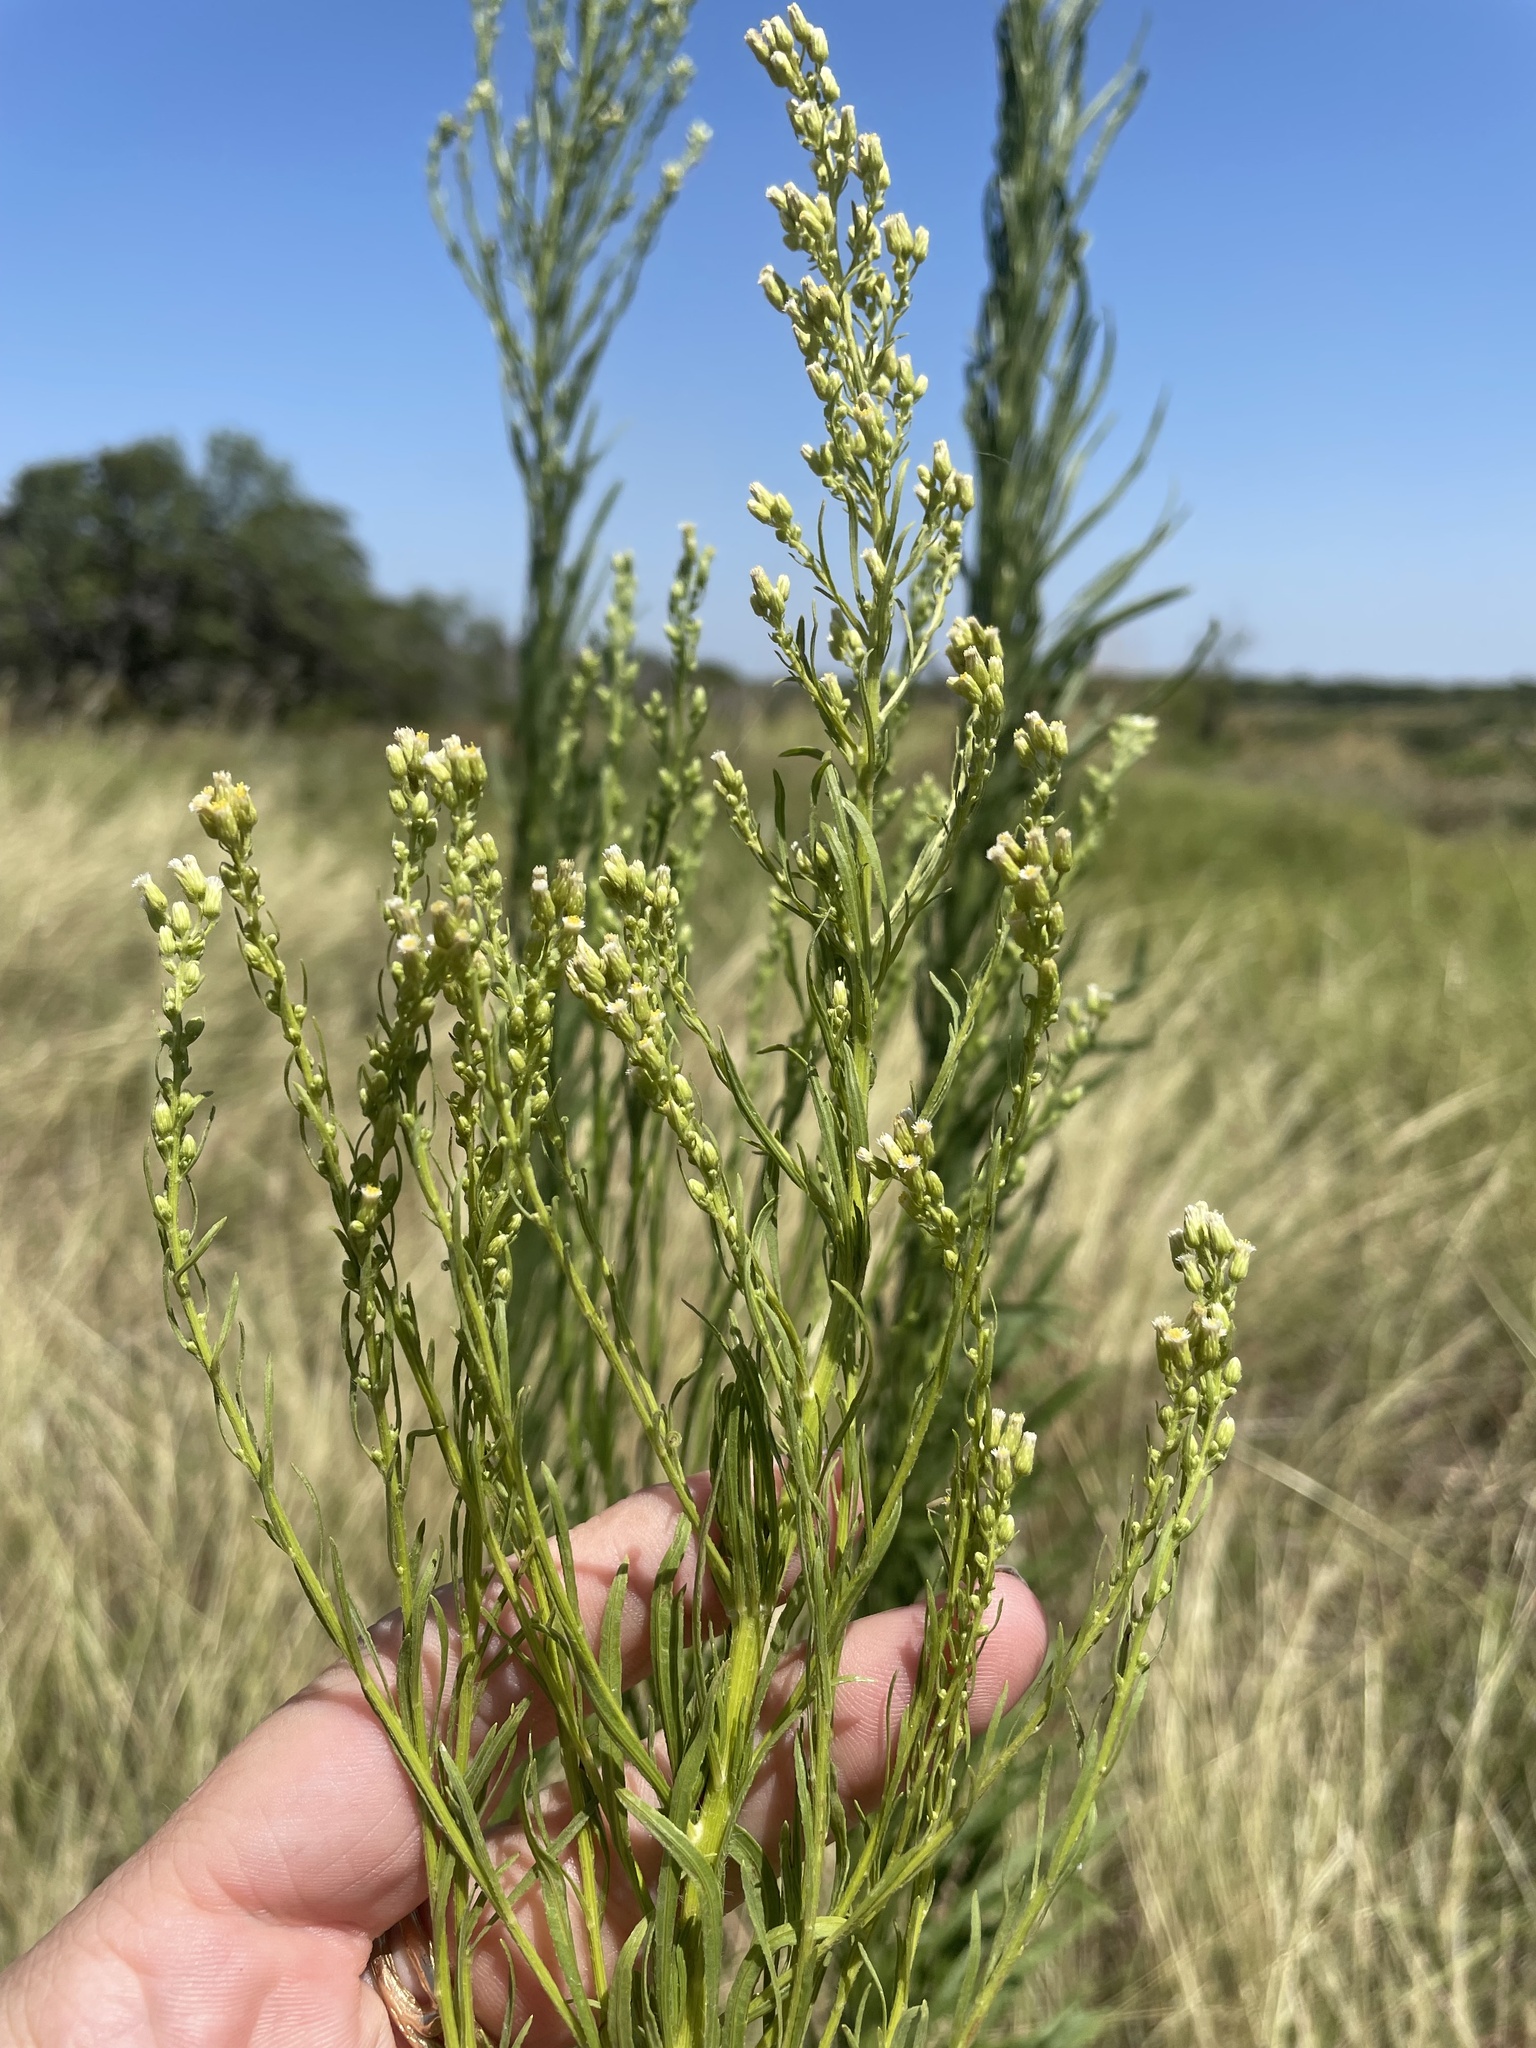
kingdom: Plantae
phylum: Tracheophyta
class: Magnoliopsida
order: Asterales
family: Asteraceae
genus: Erigeron
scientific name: Erigeron canadensis
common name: Canadian fleabane
